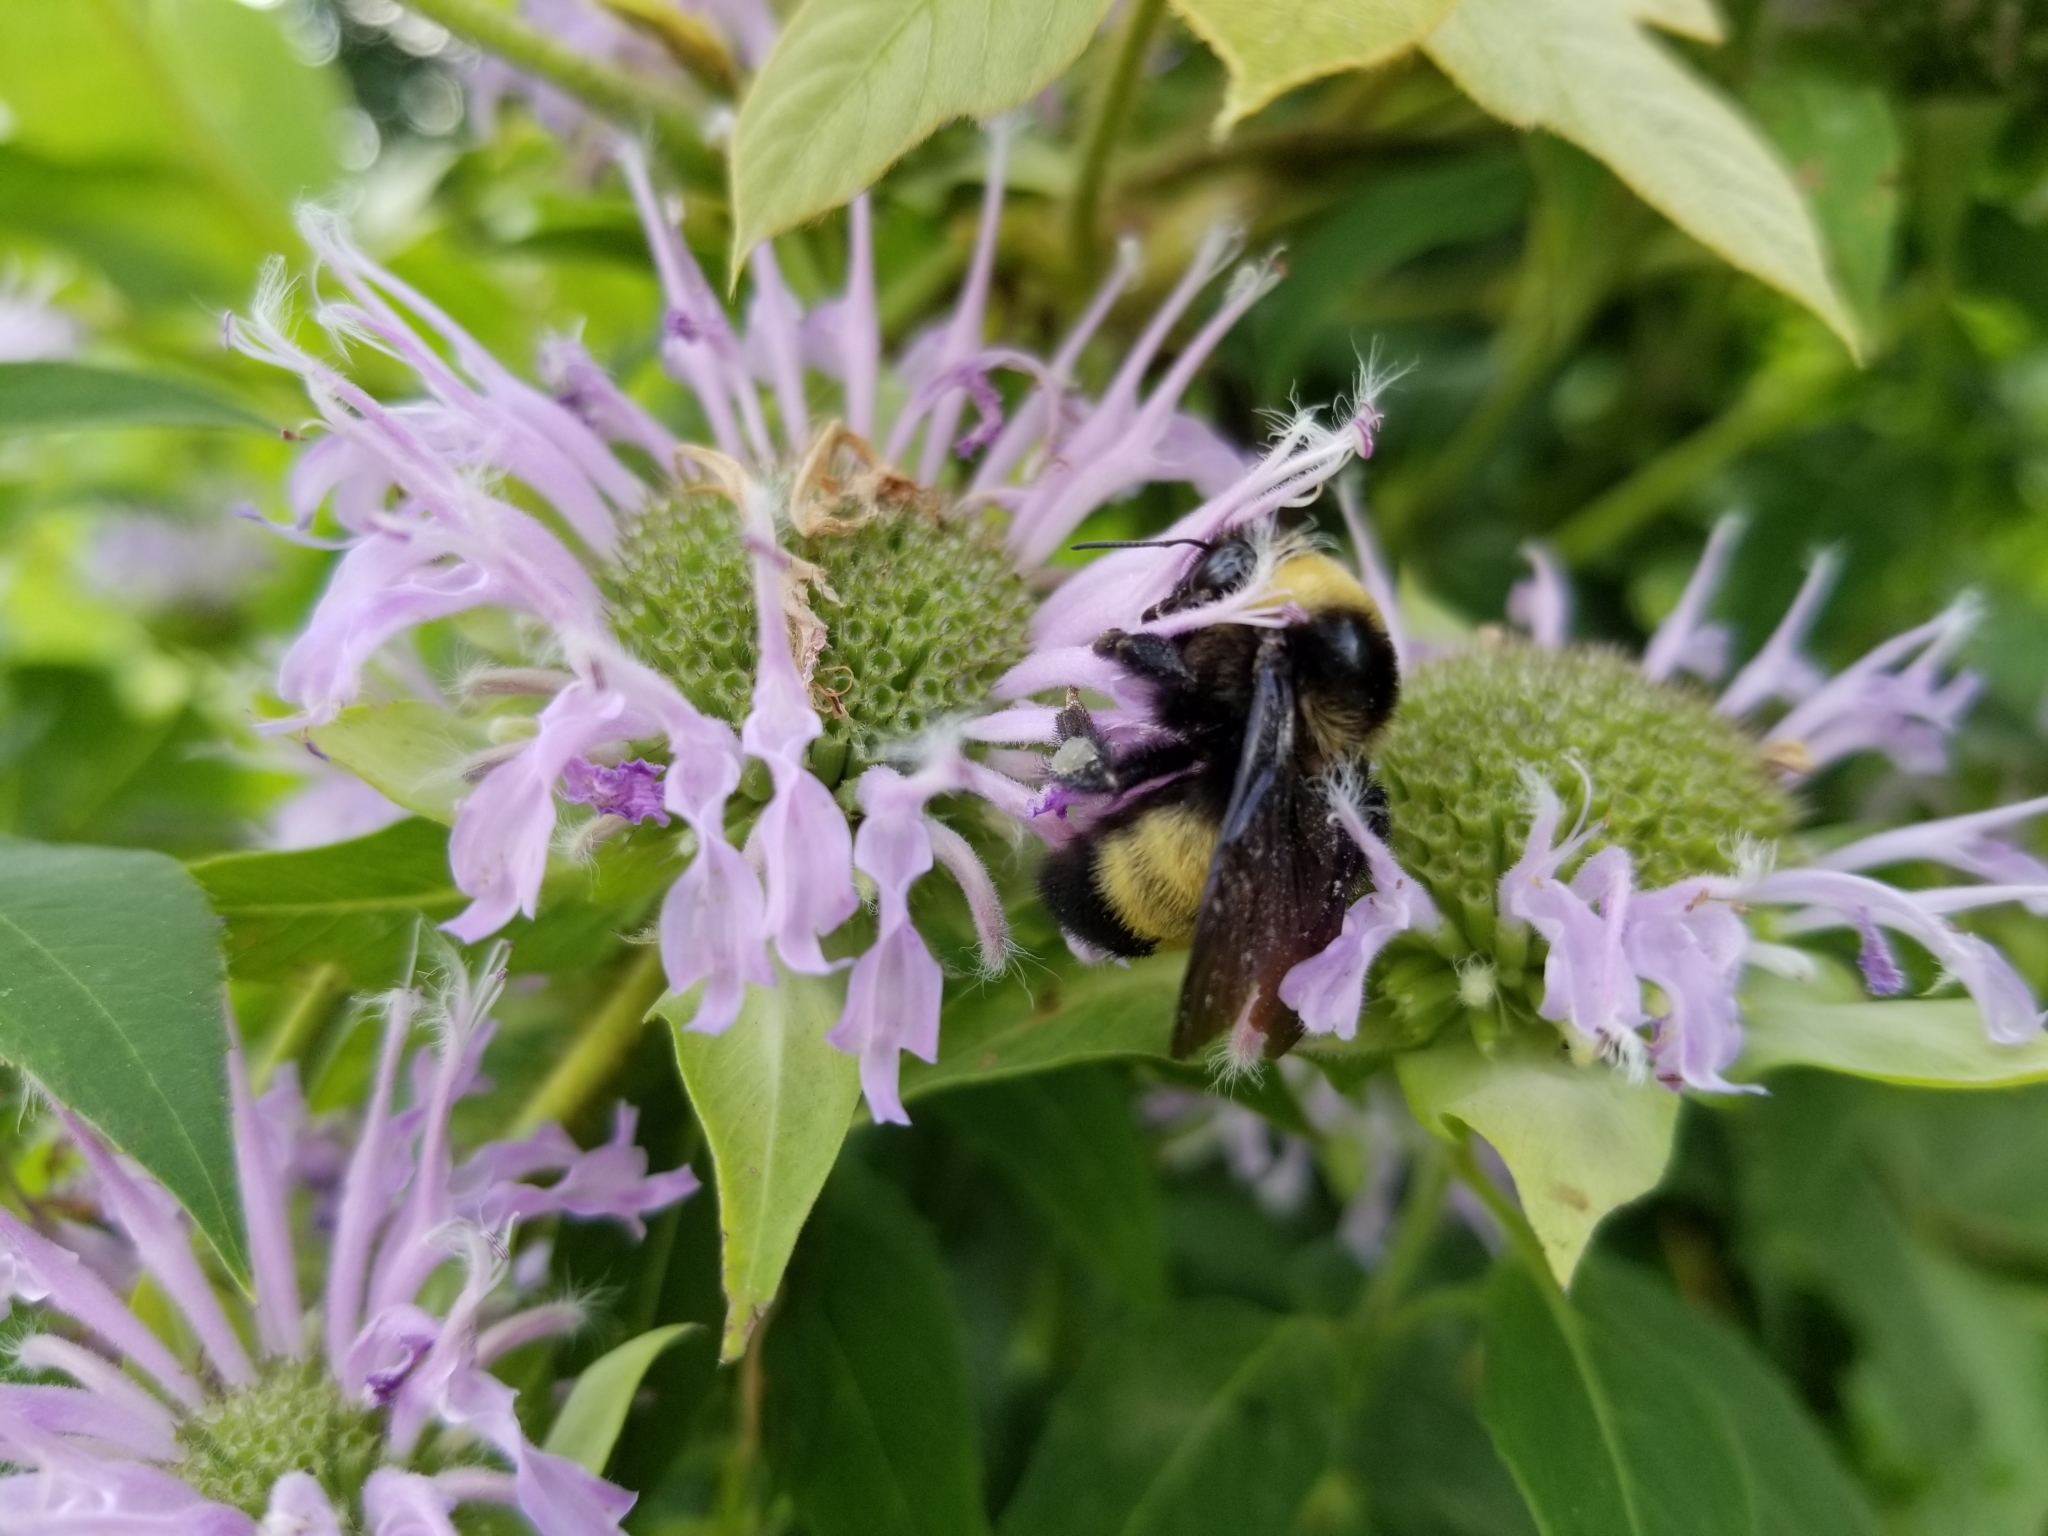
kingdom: Animalia
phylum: Arthropoda
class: Insecta
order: Hymenoptera
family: Apidae
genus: Bombus
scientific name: Bombus auricomus
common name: Black and gold bumble bee
